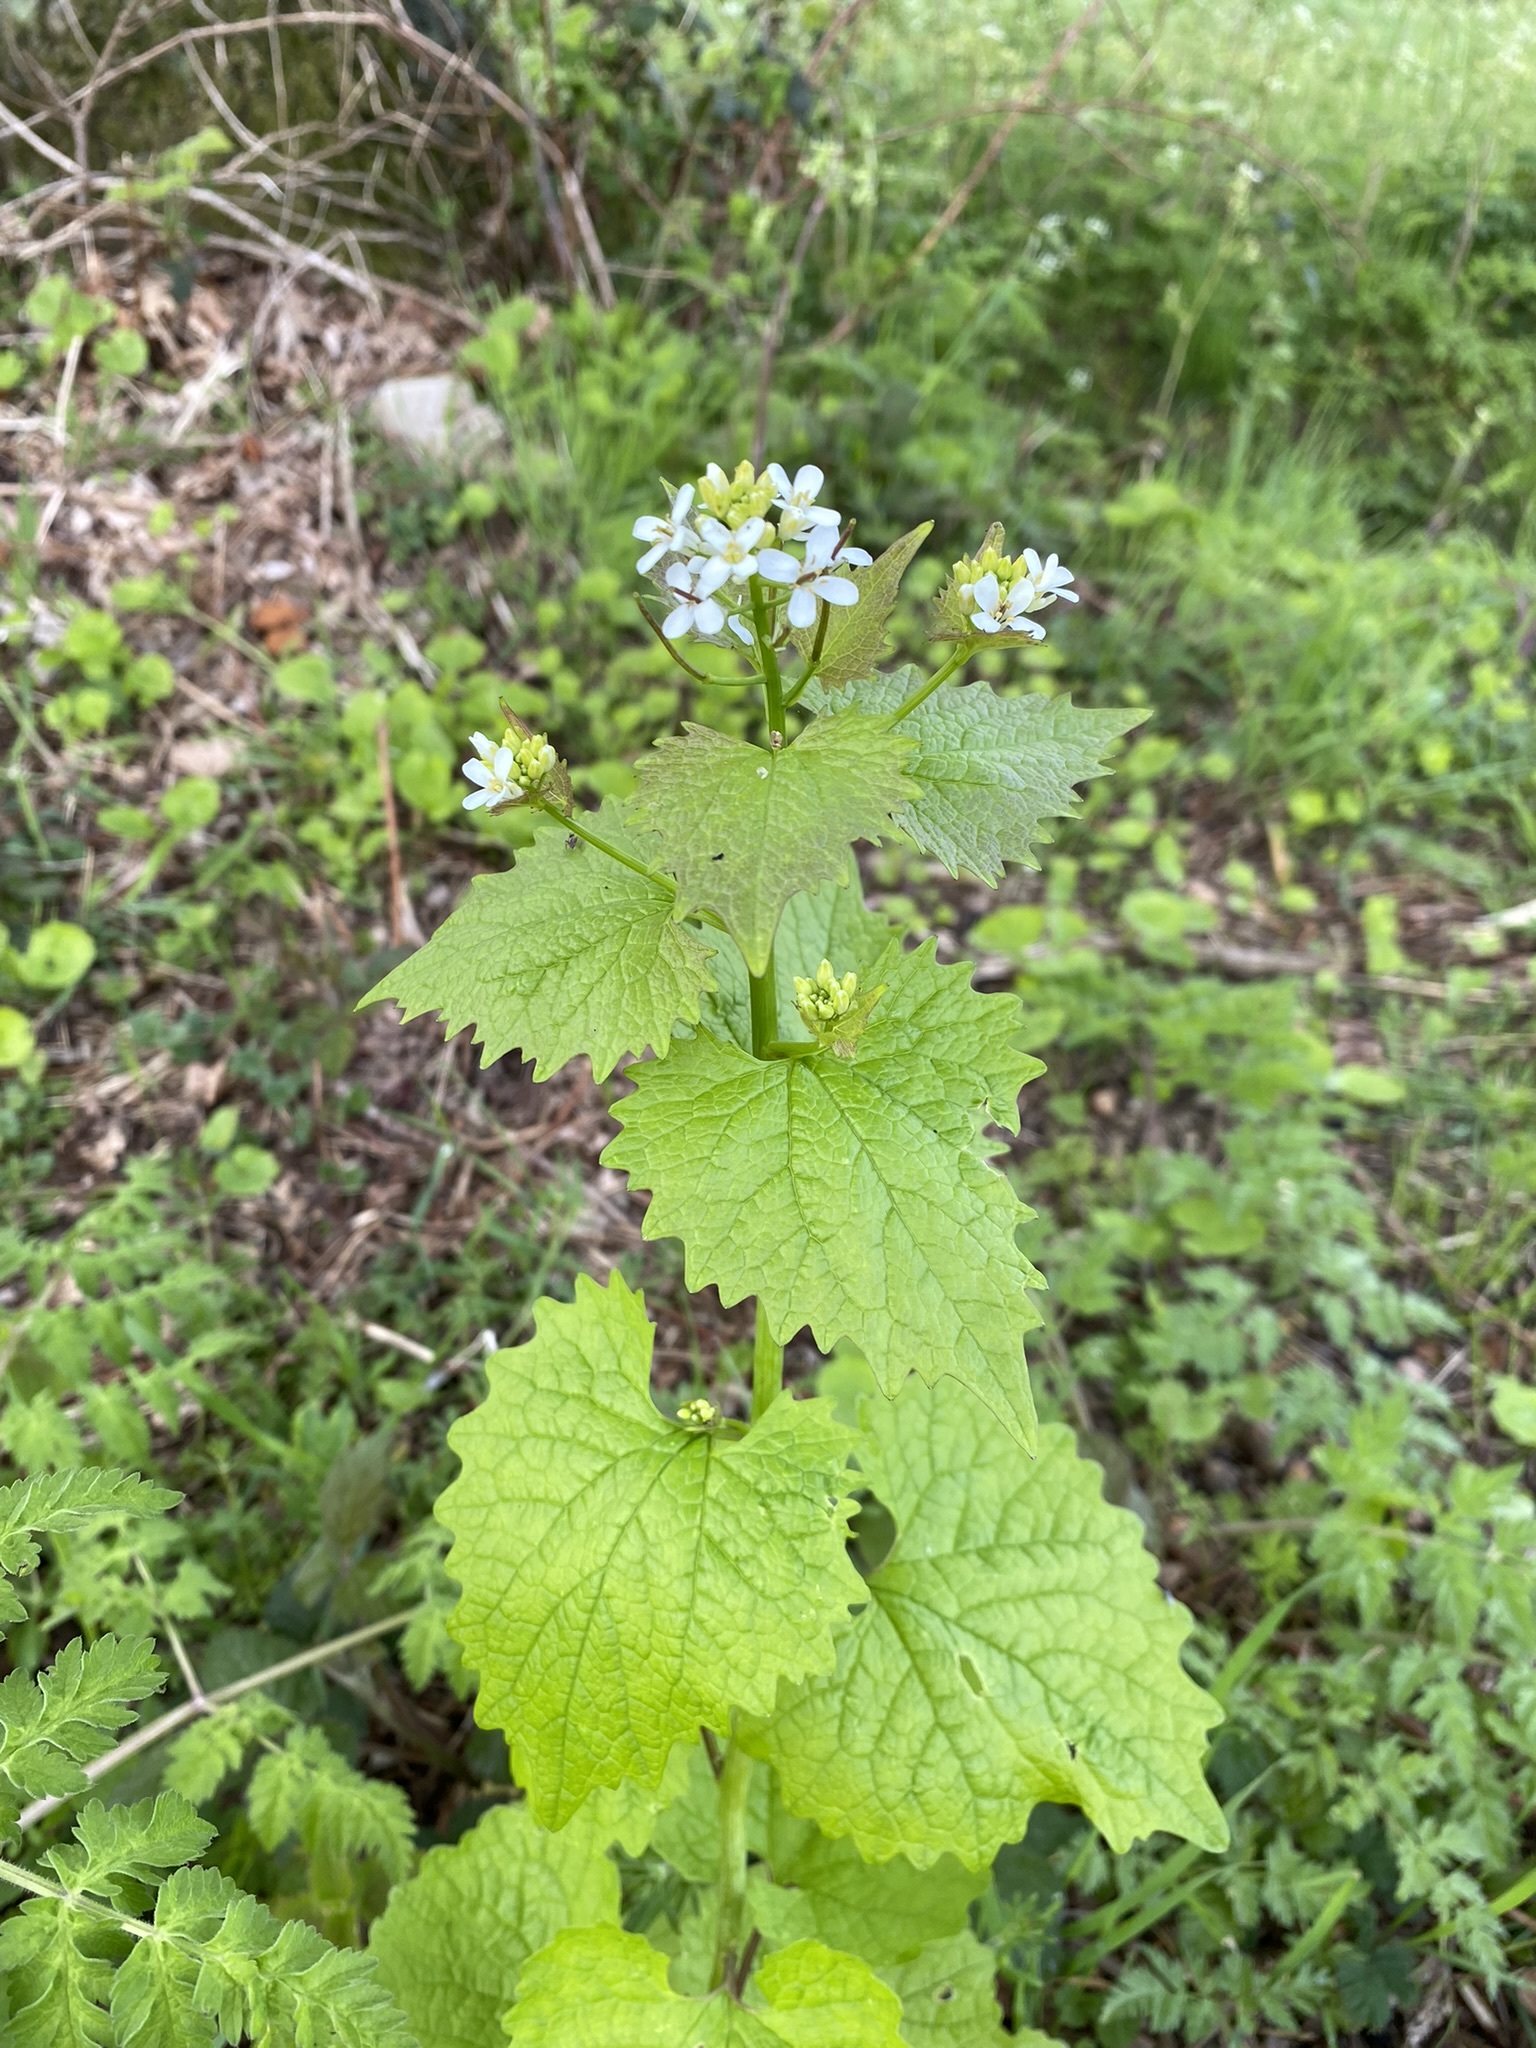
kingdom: Plantae
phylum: Tracheophyta
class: Magnoliopsida
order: Brassicales
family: Brassicaceae
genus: Alliaria
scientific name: Alliaria petiolata
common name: Garlic mustard
